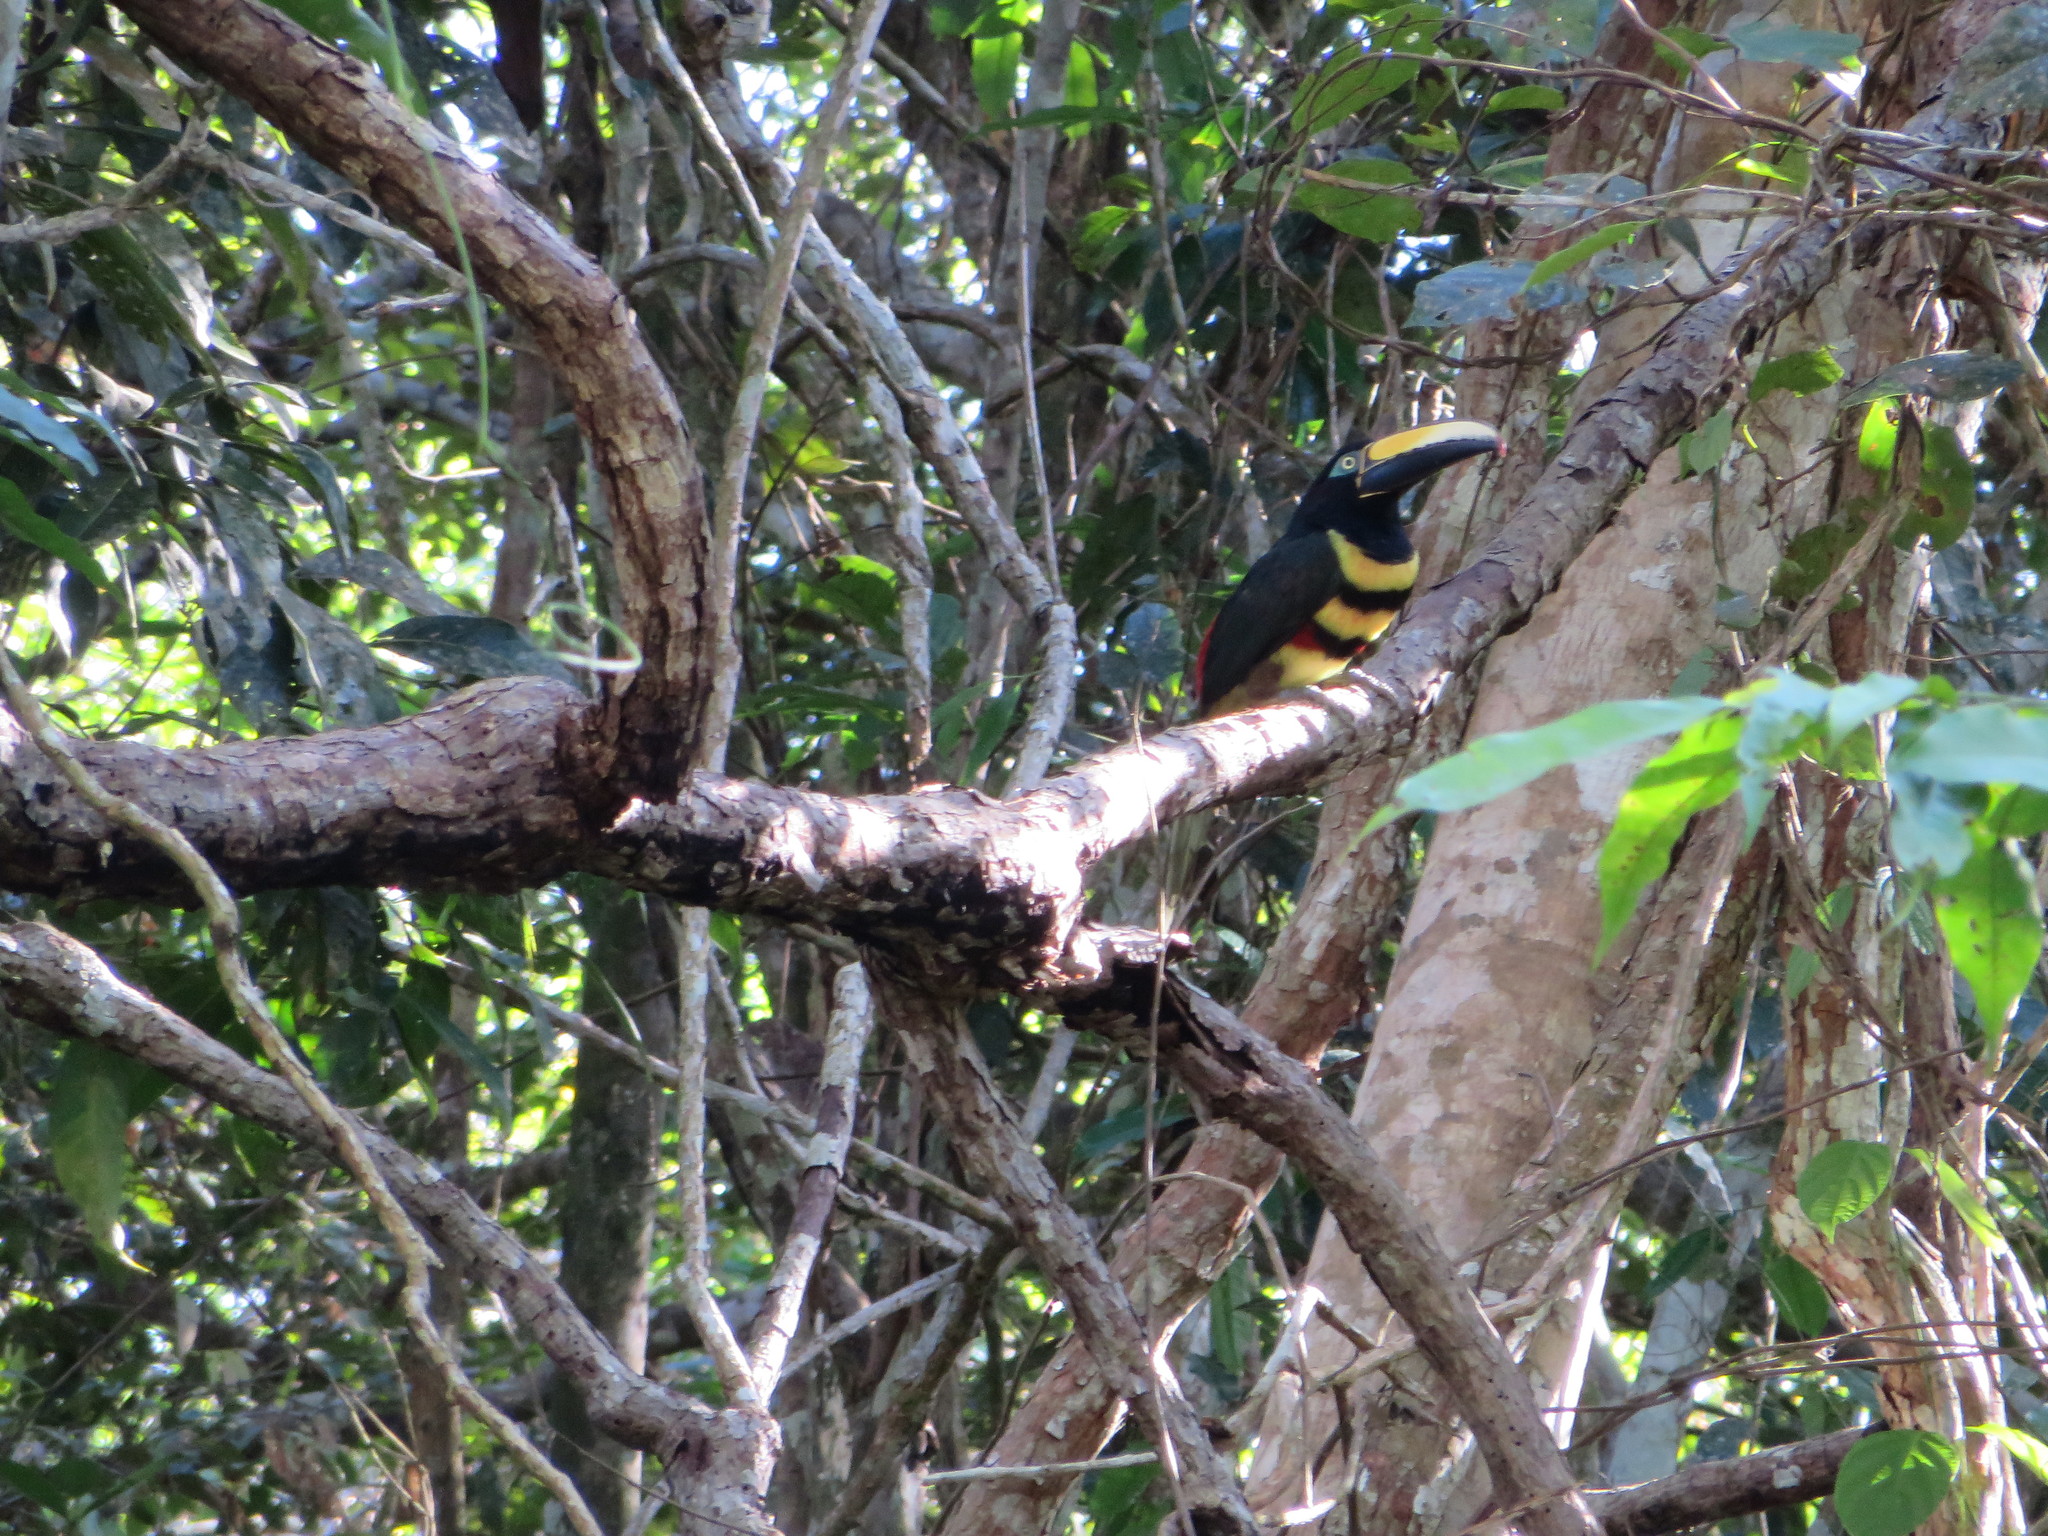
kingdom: Animalia
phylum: Chordata
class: Aves
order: Piciformes
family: Ramphastidae
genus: Pteroglossus
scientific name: Pteroglossus pluricinctus
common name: Many-banded aracari
